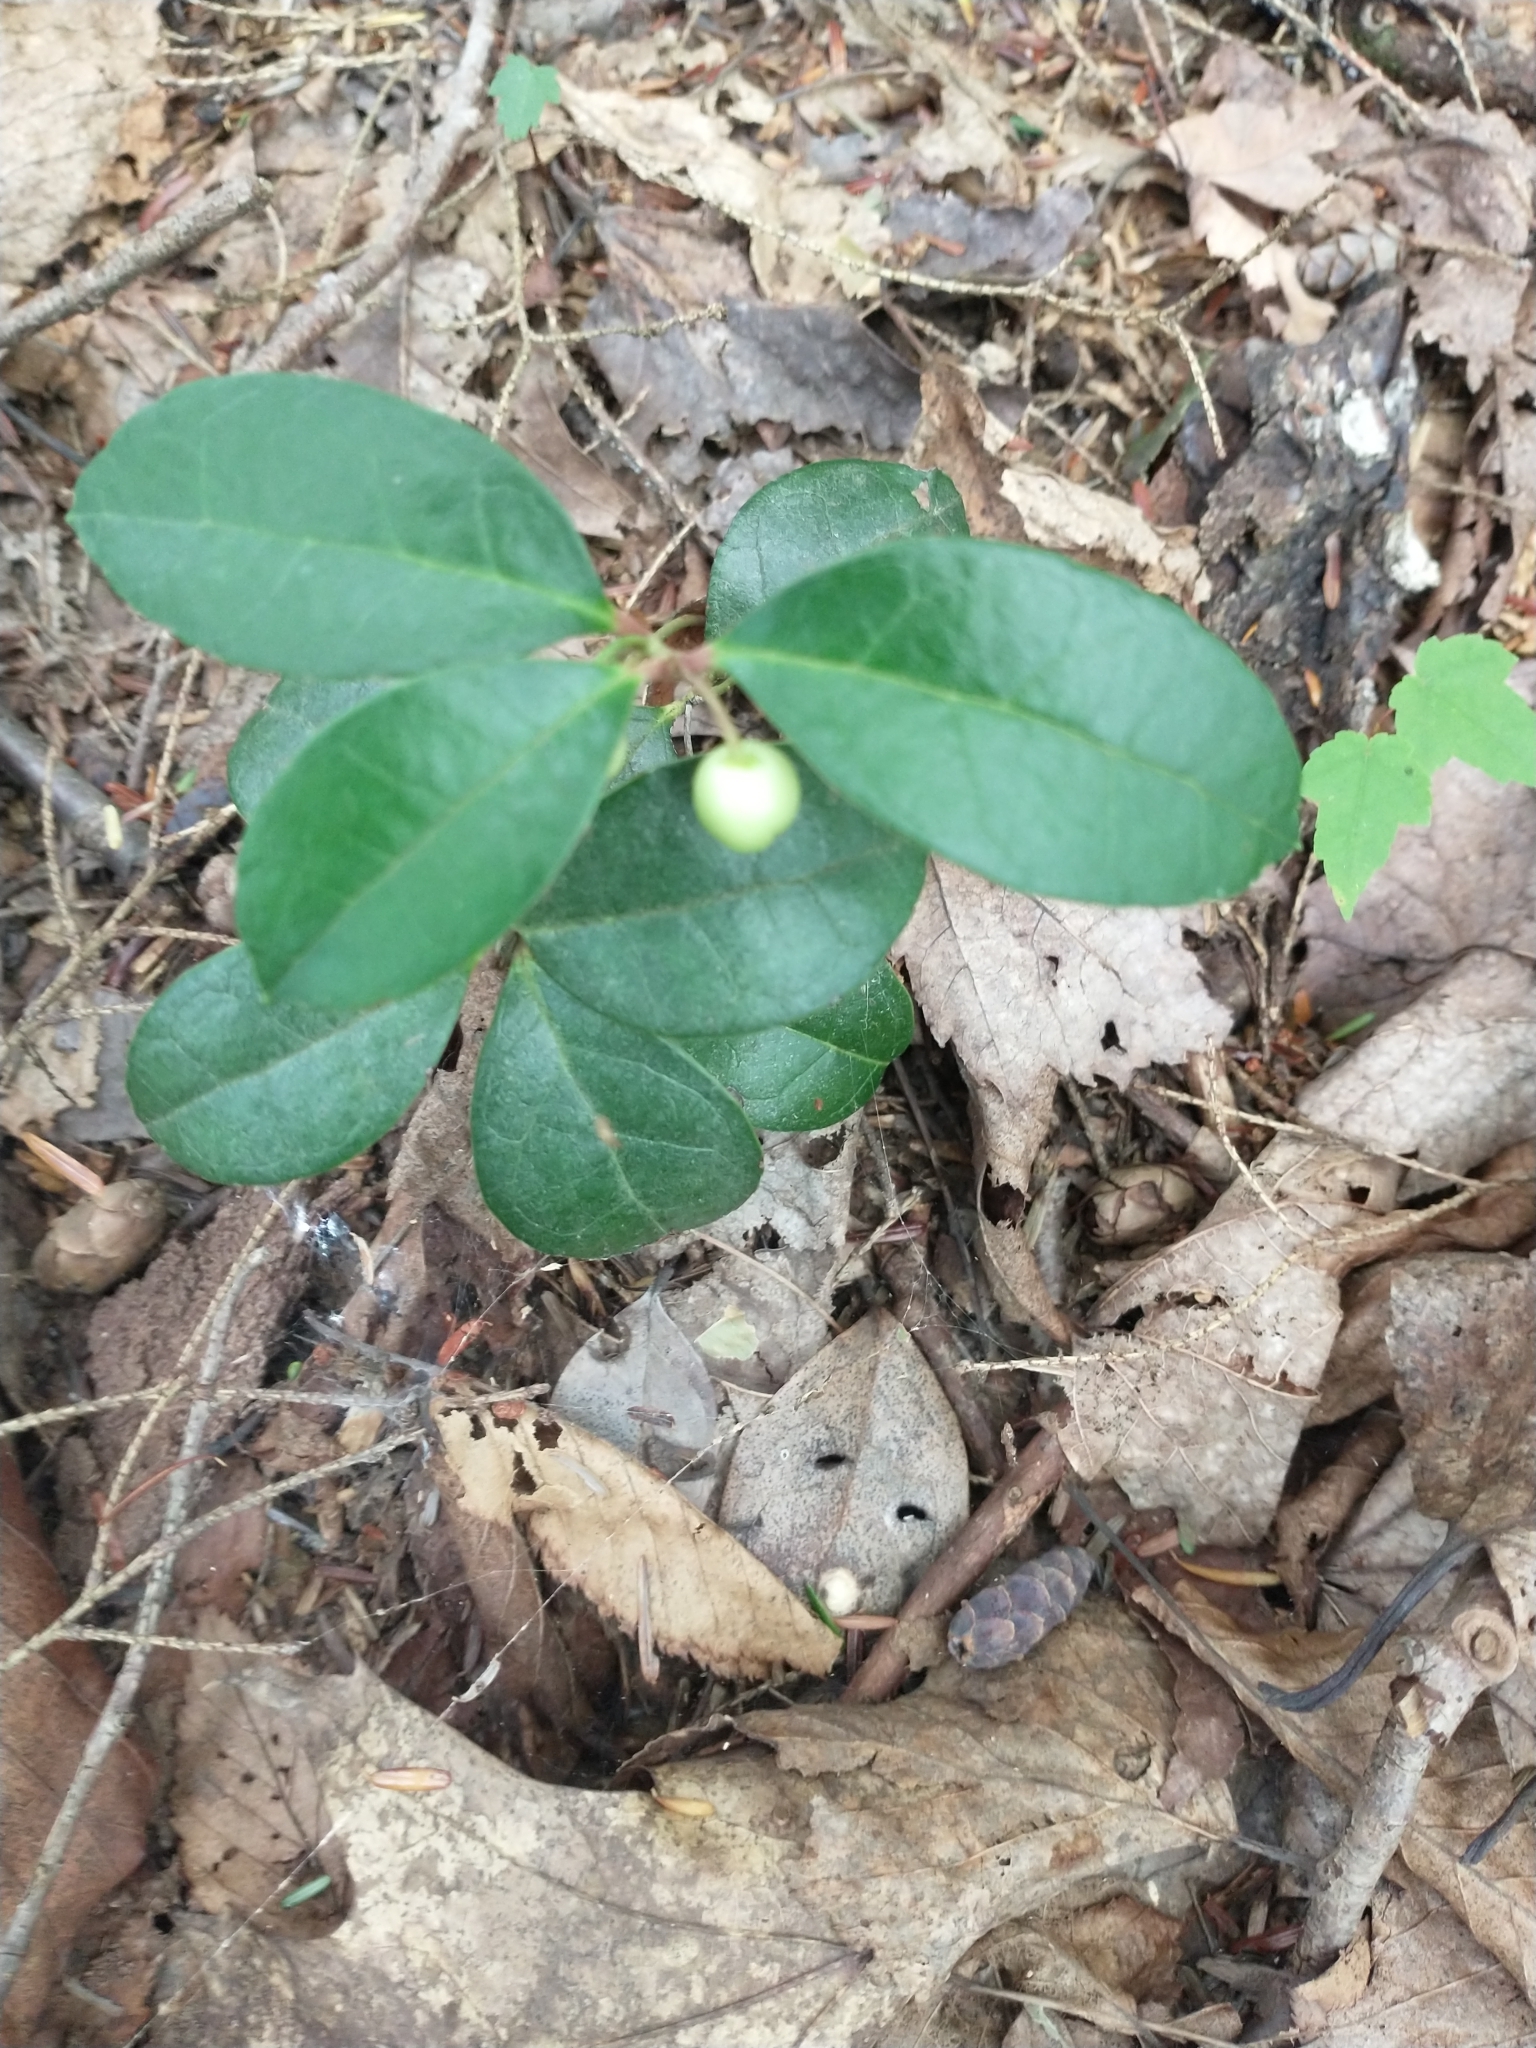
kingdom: Plantae
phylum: Tracheophyta
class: Magnoliopsida
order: Ericales
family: Ericaceae
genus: Gaultheria
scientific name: Gaultheria procumbens
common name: Checkerberry
